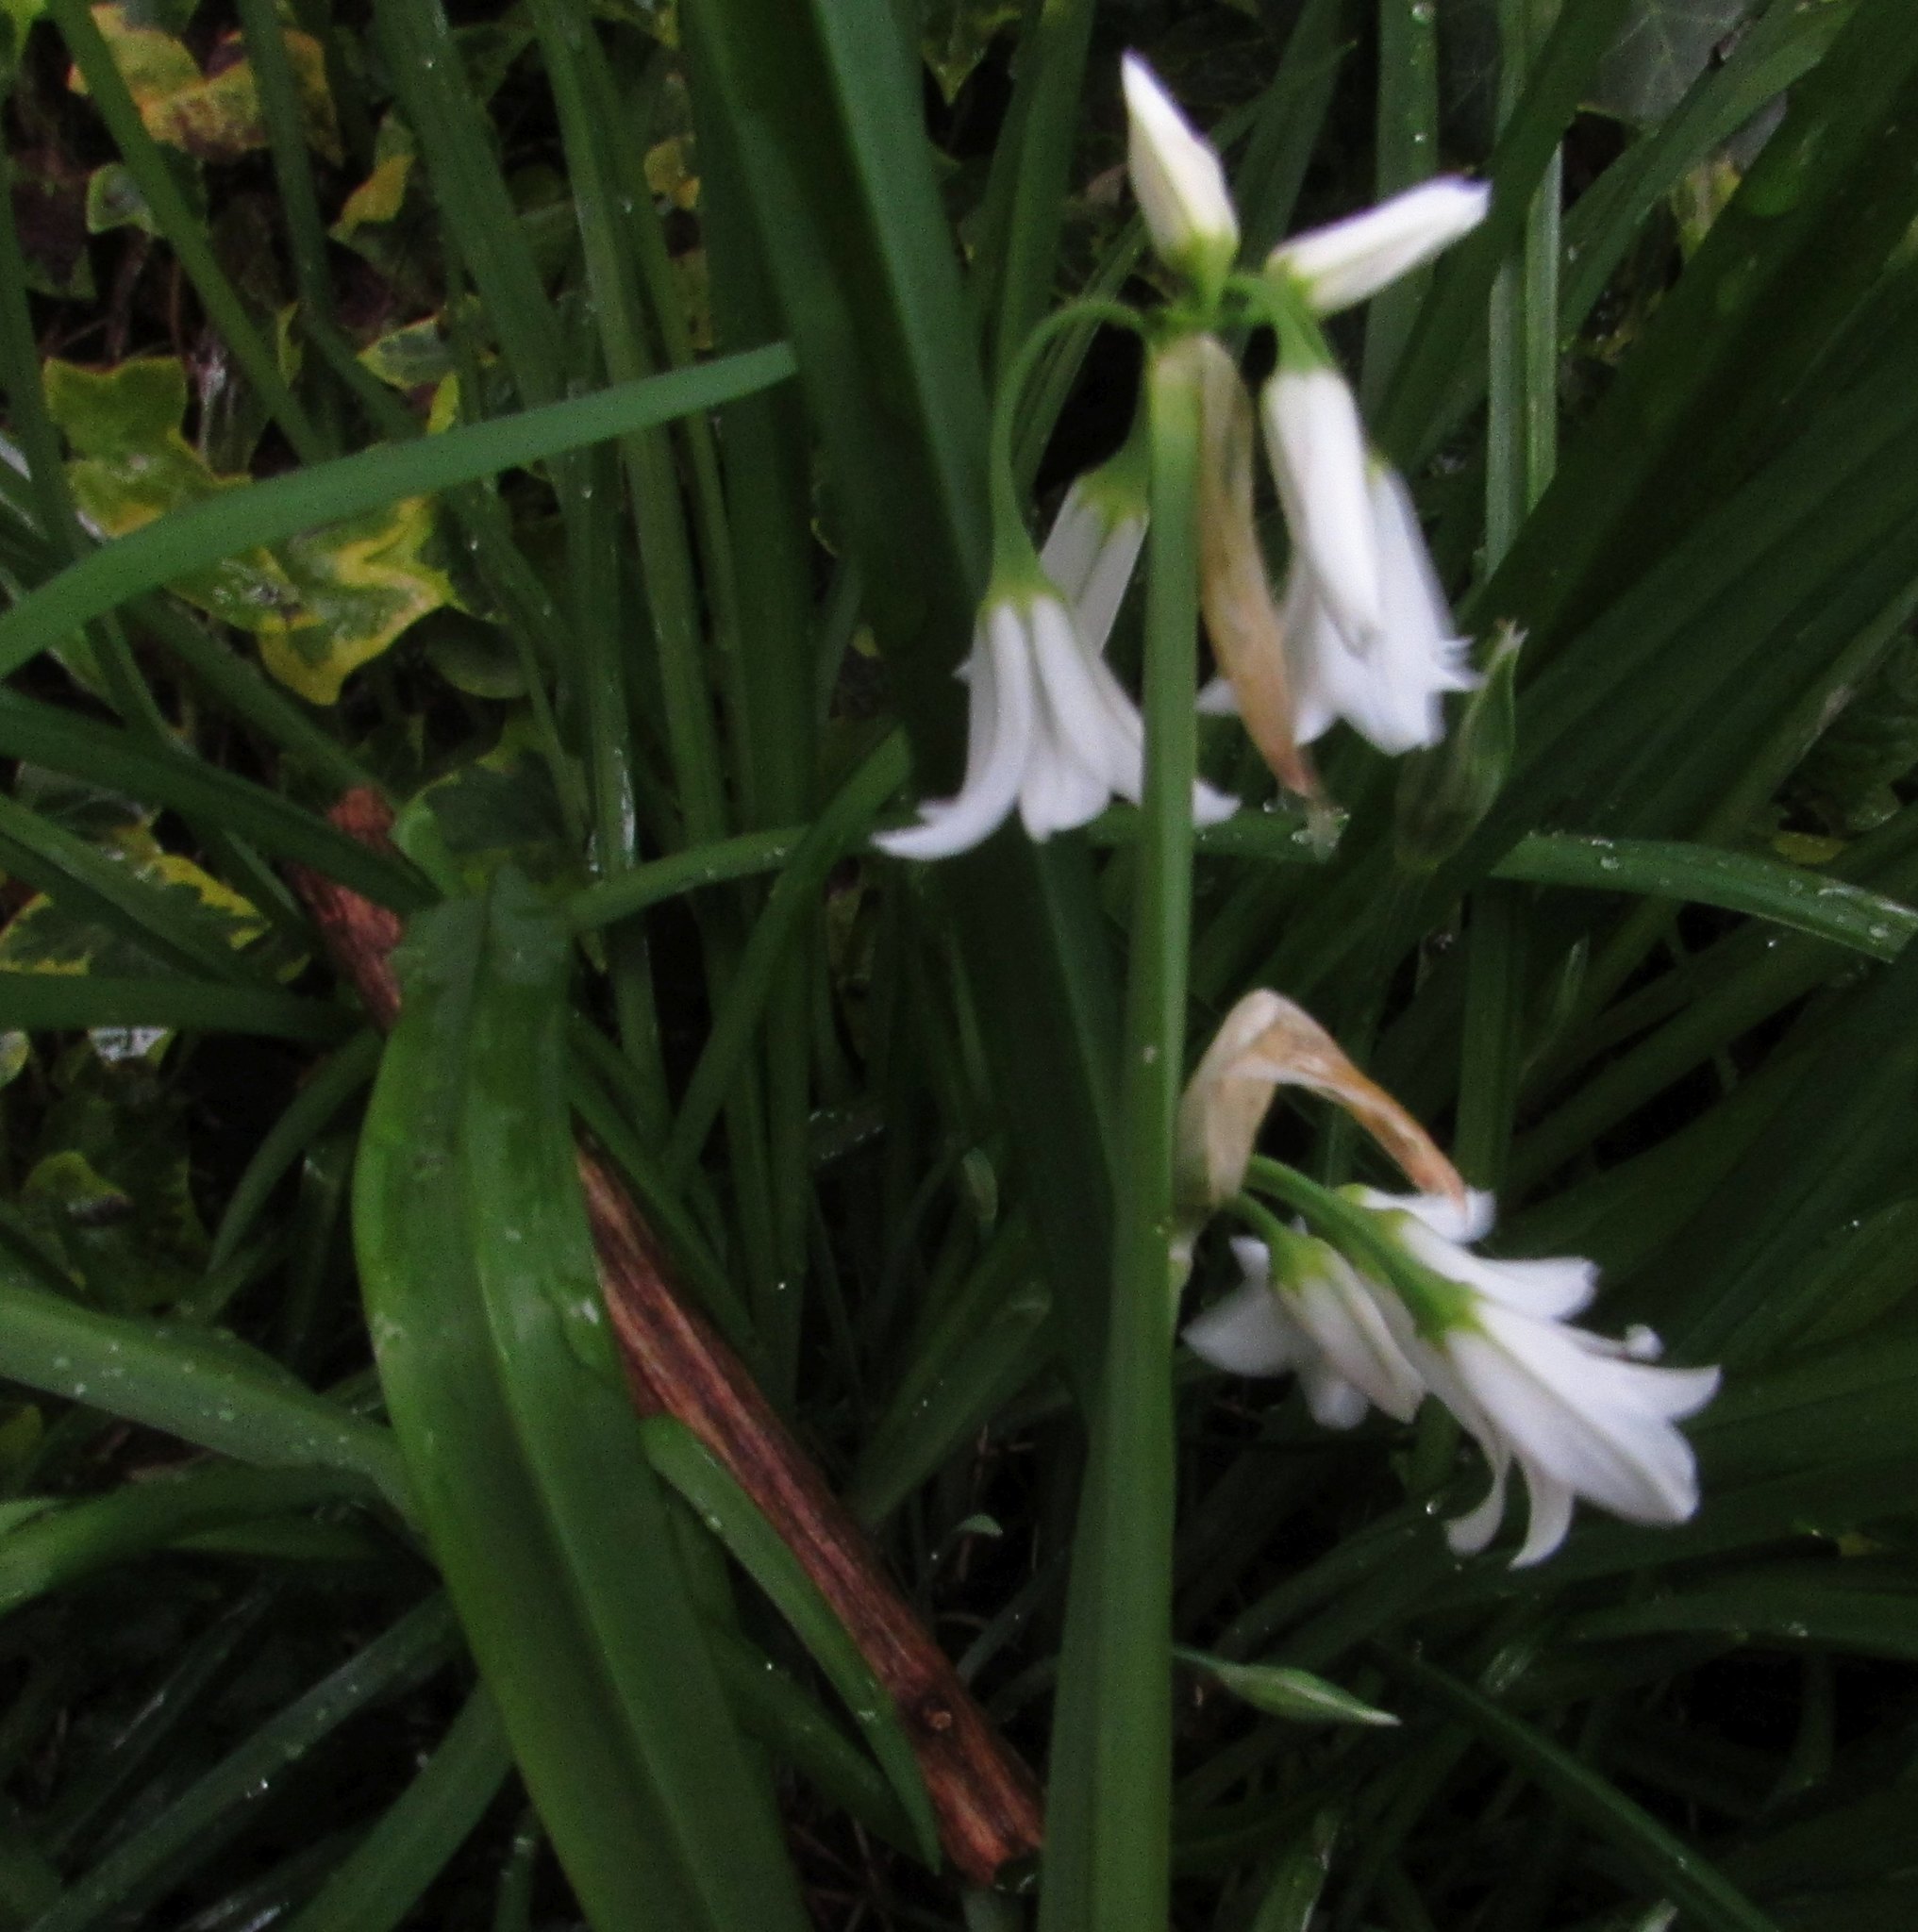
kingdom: Plantae
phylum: Tracheophyta
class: Liliopsida
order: Asparagales
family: Amaryllidaceae
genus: Allium
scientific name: Allium triquetrum
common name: Three-cornered garlic
